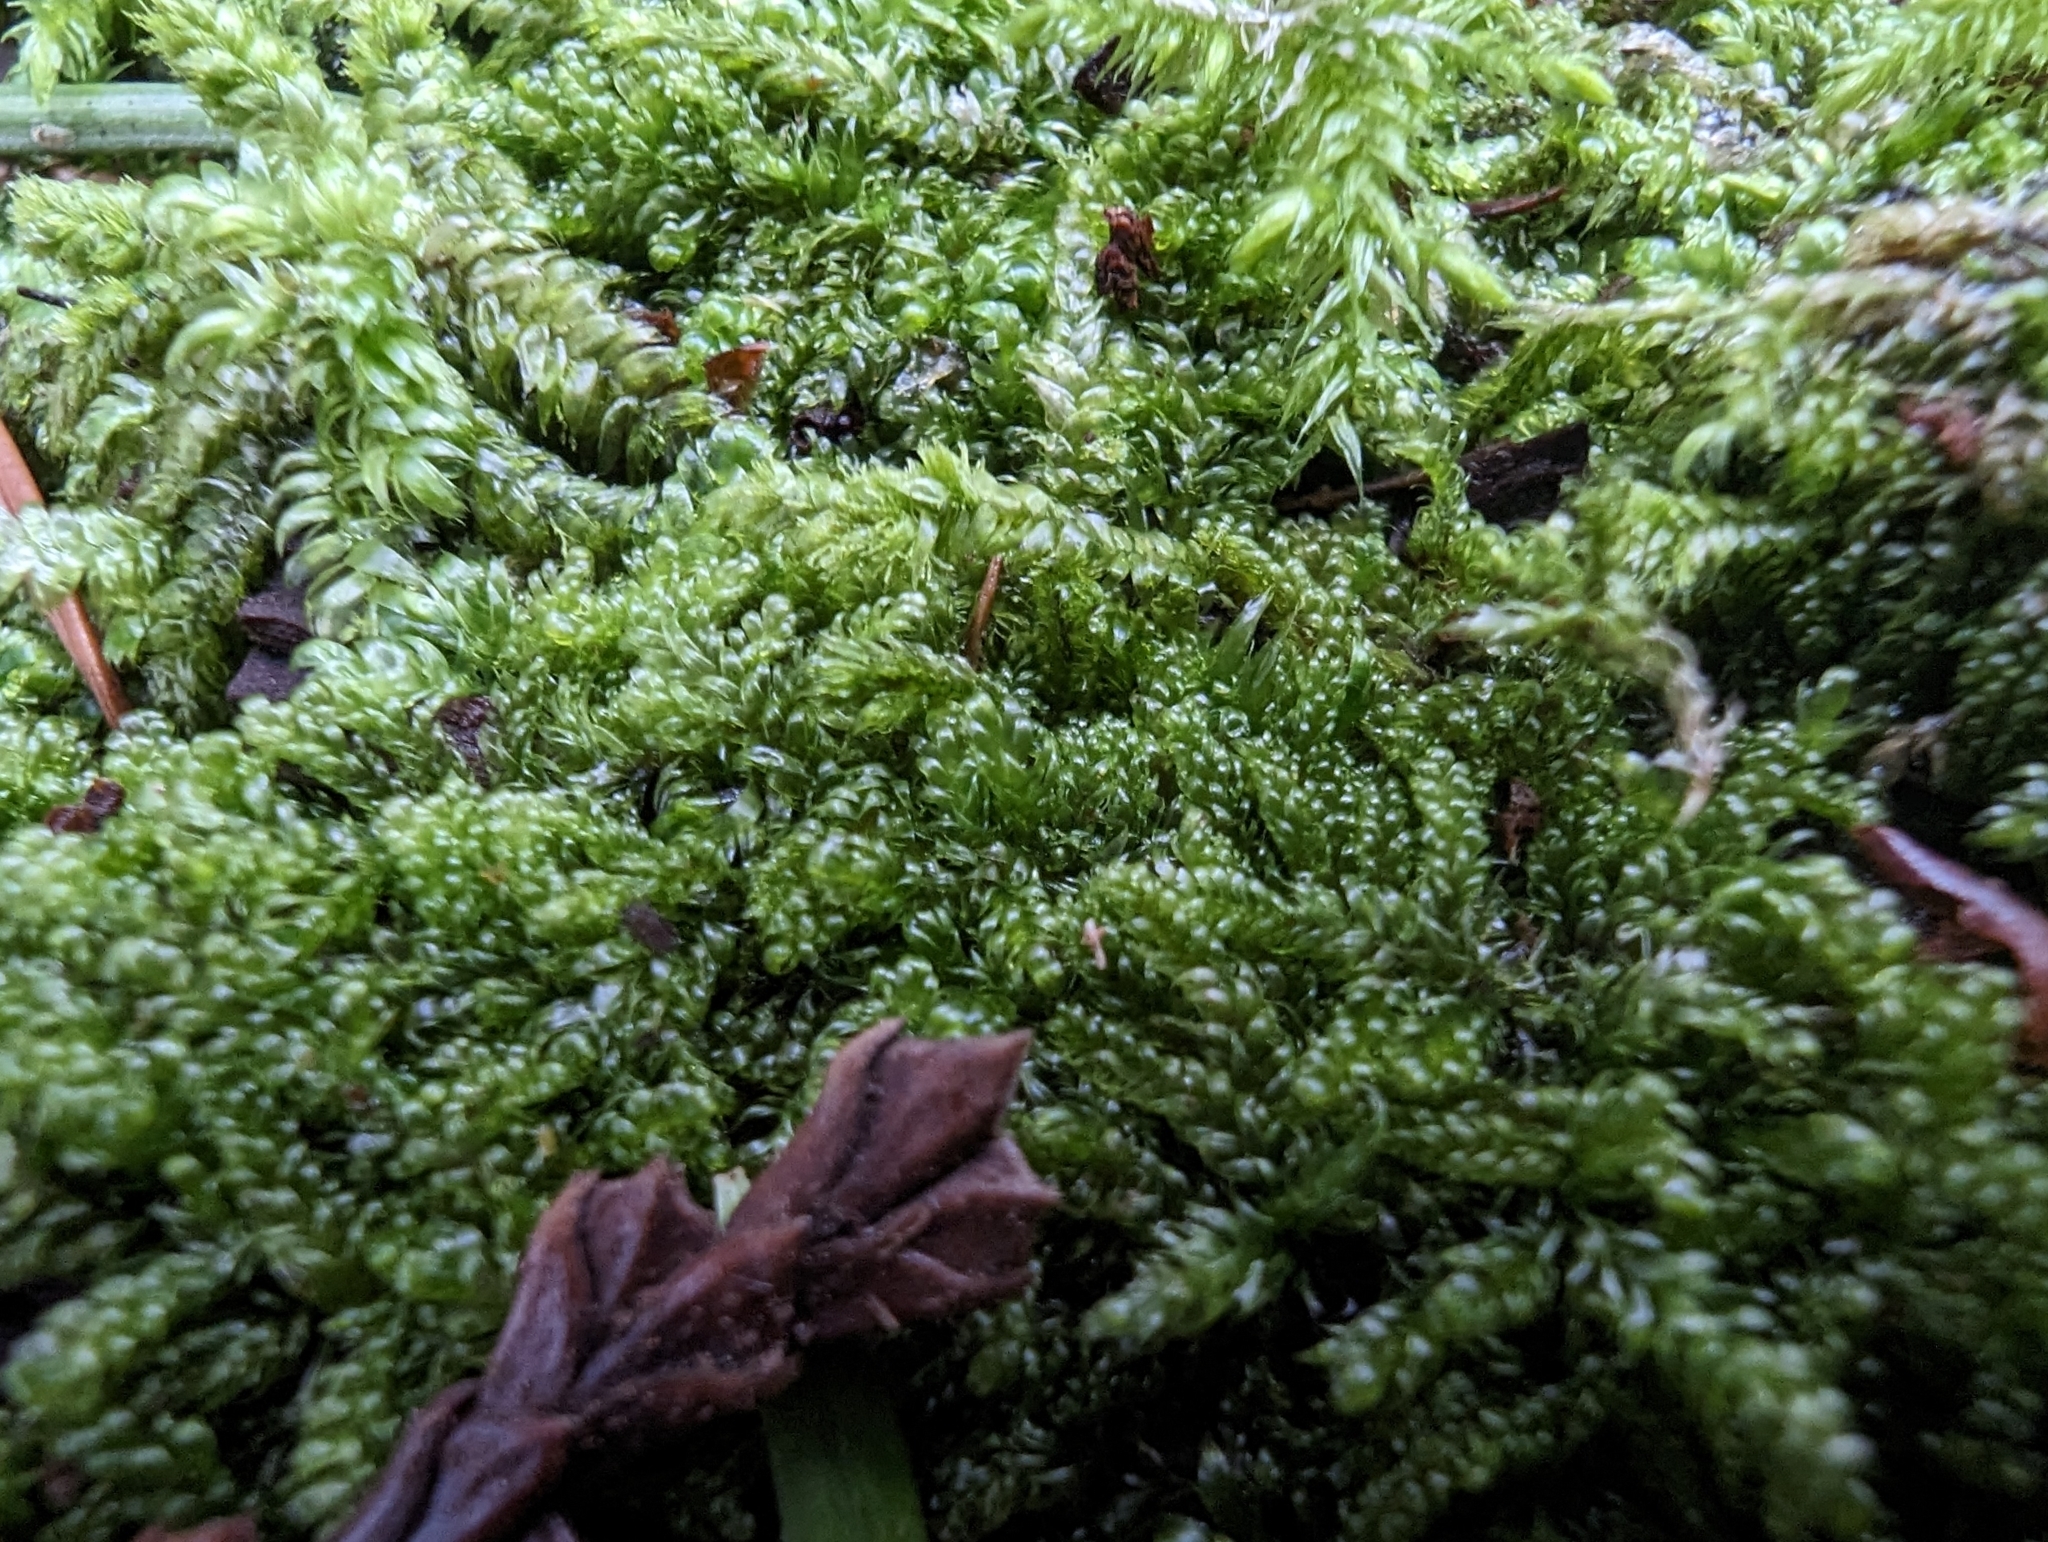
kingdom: Plantae
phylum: Bryophyta
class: Bryopsida
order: Hypnales
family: Pylaisiadelphaceae
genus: Trochophyllohypnum
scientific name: Trochophyllohypnum circinale
